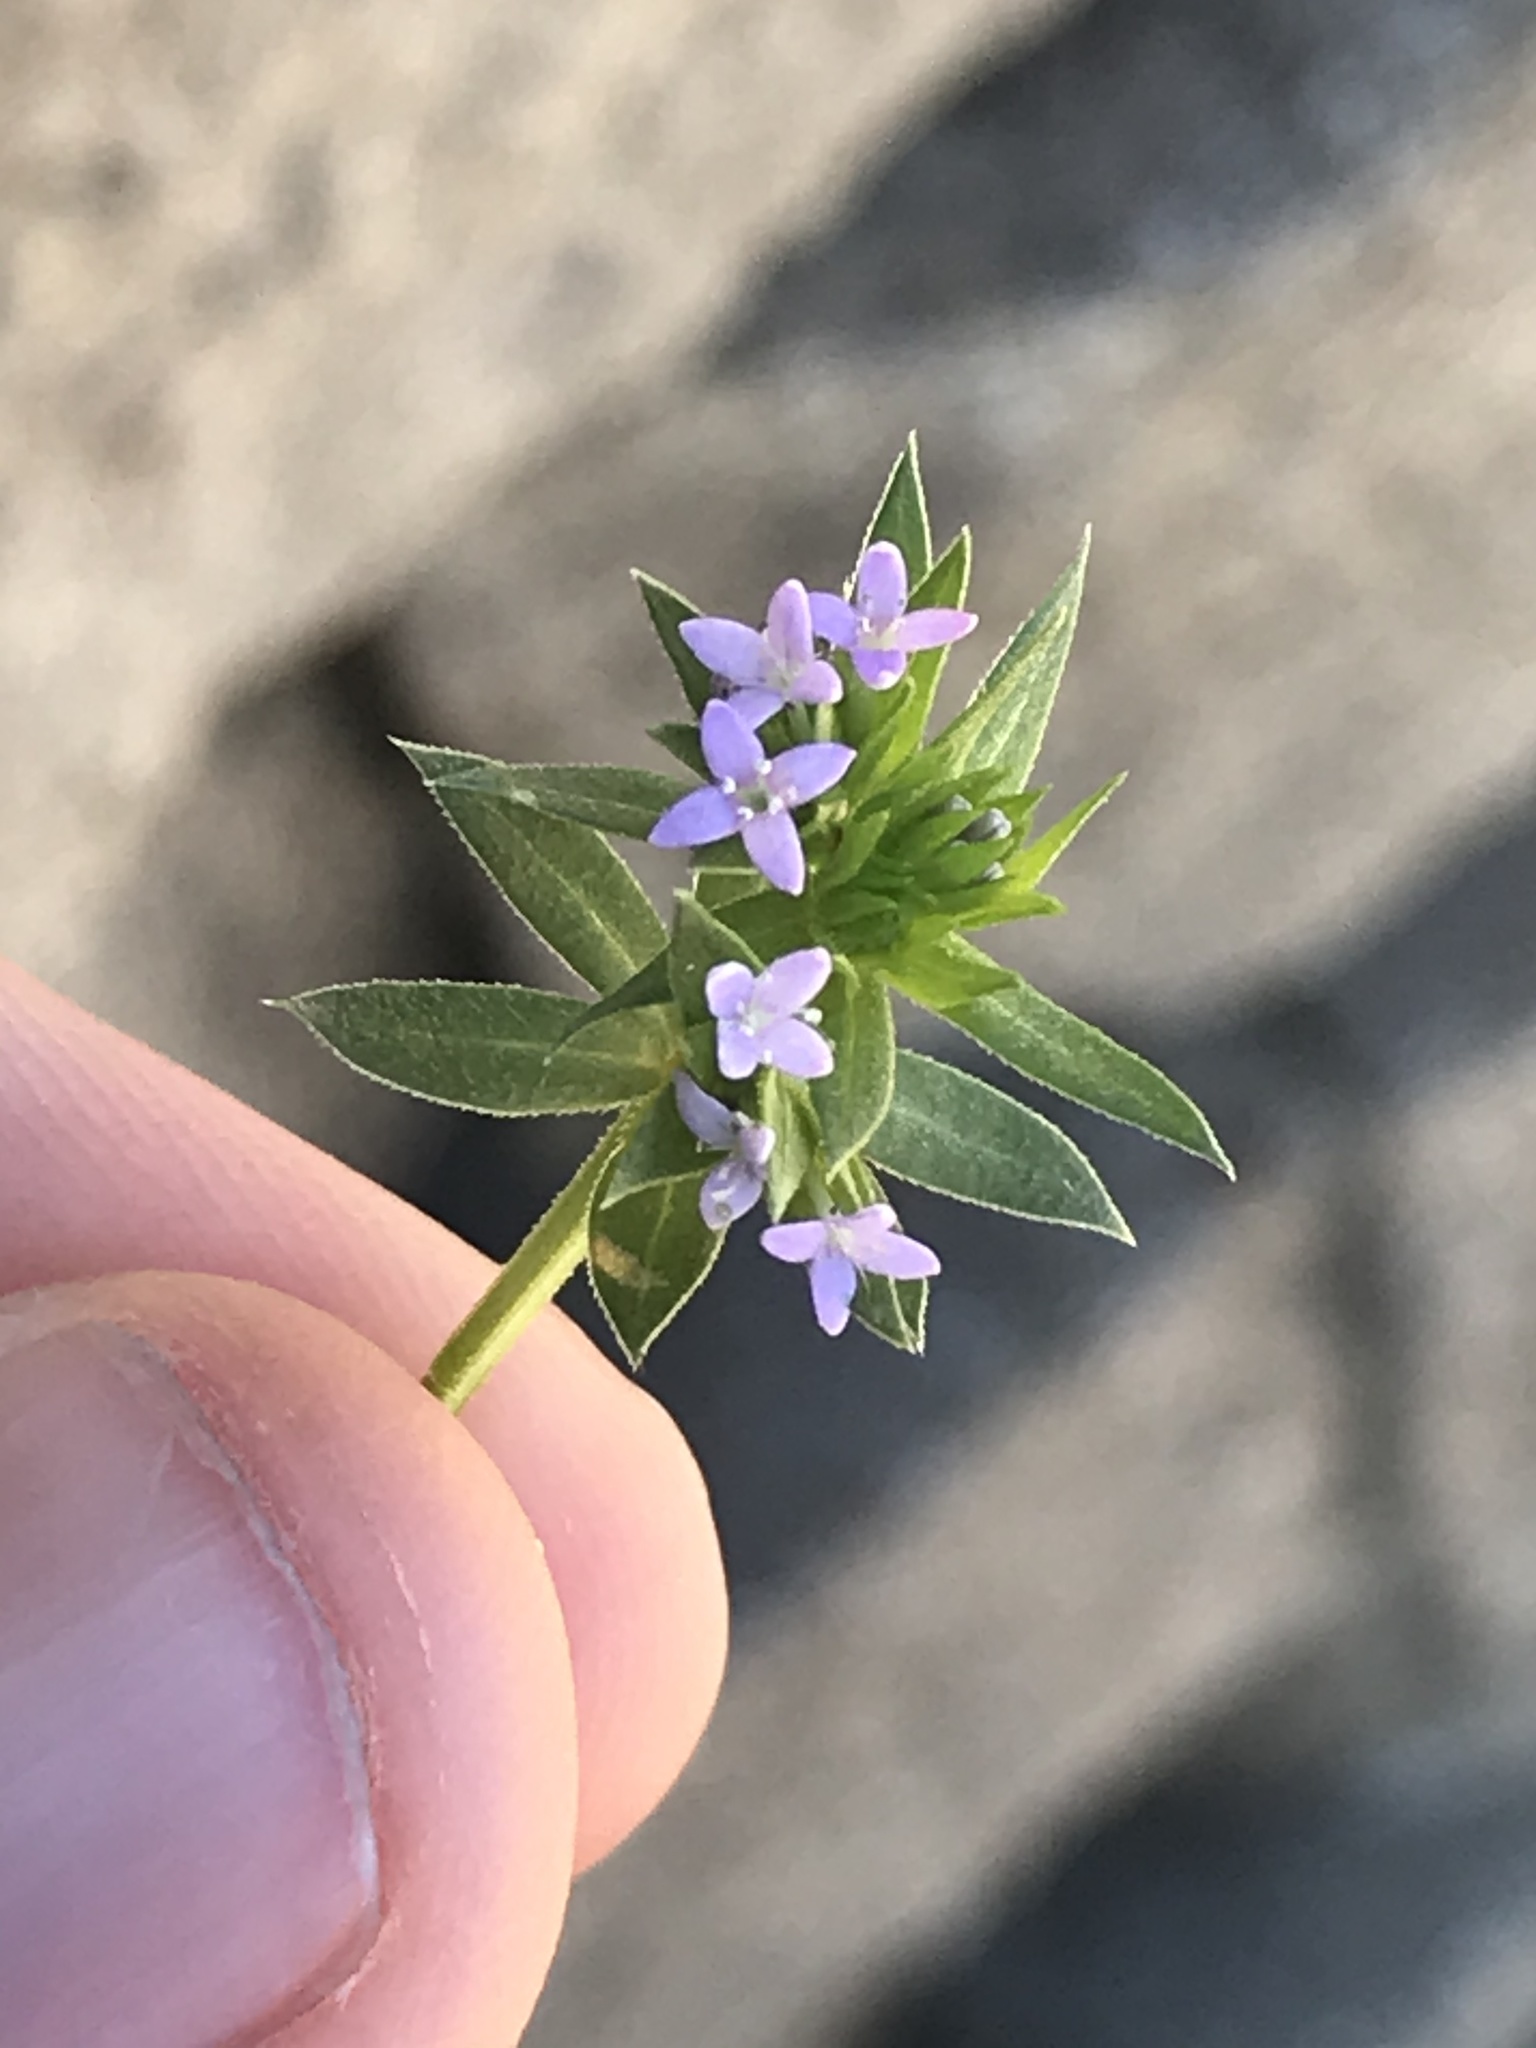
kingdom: Plantae
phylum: Tracheophyta
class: Magnoliopsida
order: Gentianales
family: Rubiaceae
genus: Sherardia
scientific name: Sherardia arvensis
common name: Field madder
